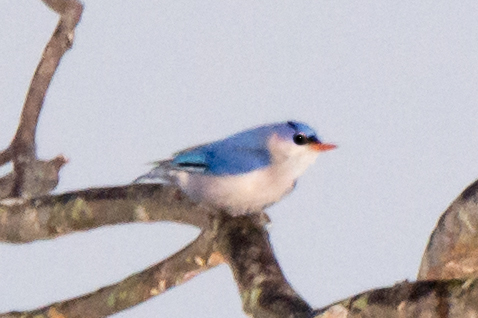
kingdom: Animalia
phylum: Chordata
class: Aves
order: Passeriformes
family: Sittidae
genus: Sitta
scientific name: Sitta frontalis
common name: Velvet-fronted nuthatch
